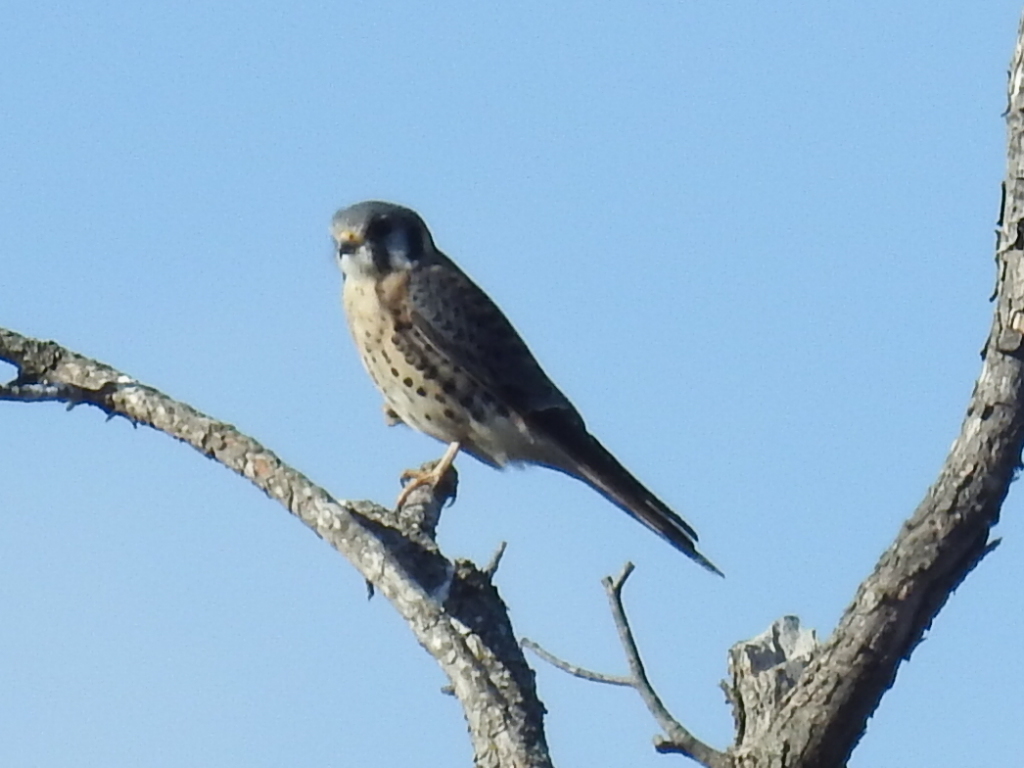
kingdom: Animalia
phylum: Chordata
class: Aves
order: Falconiformes
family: Falconidae
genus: Falco
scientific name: Falco sparverius
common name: American kestrel
